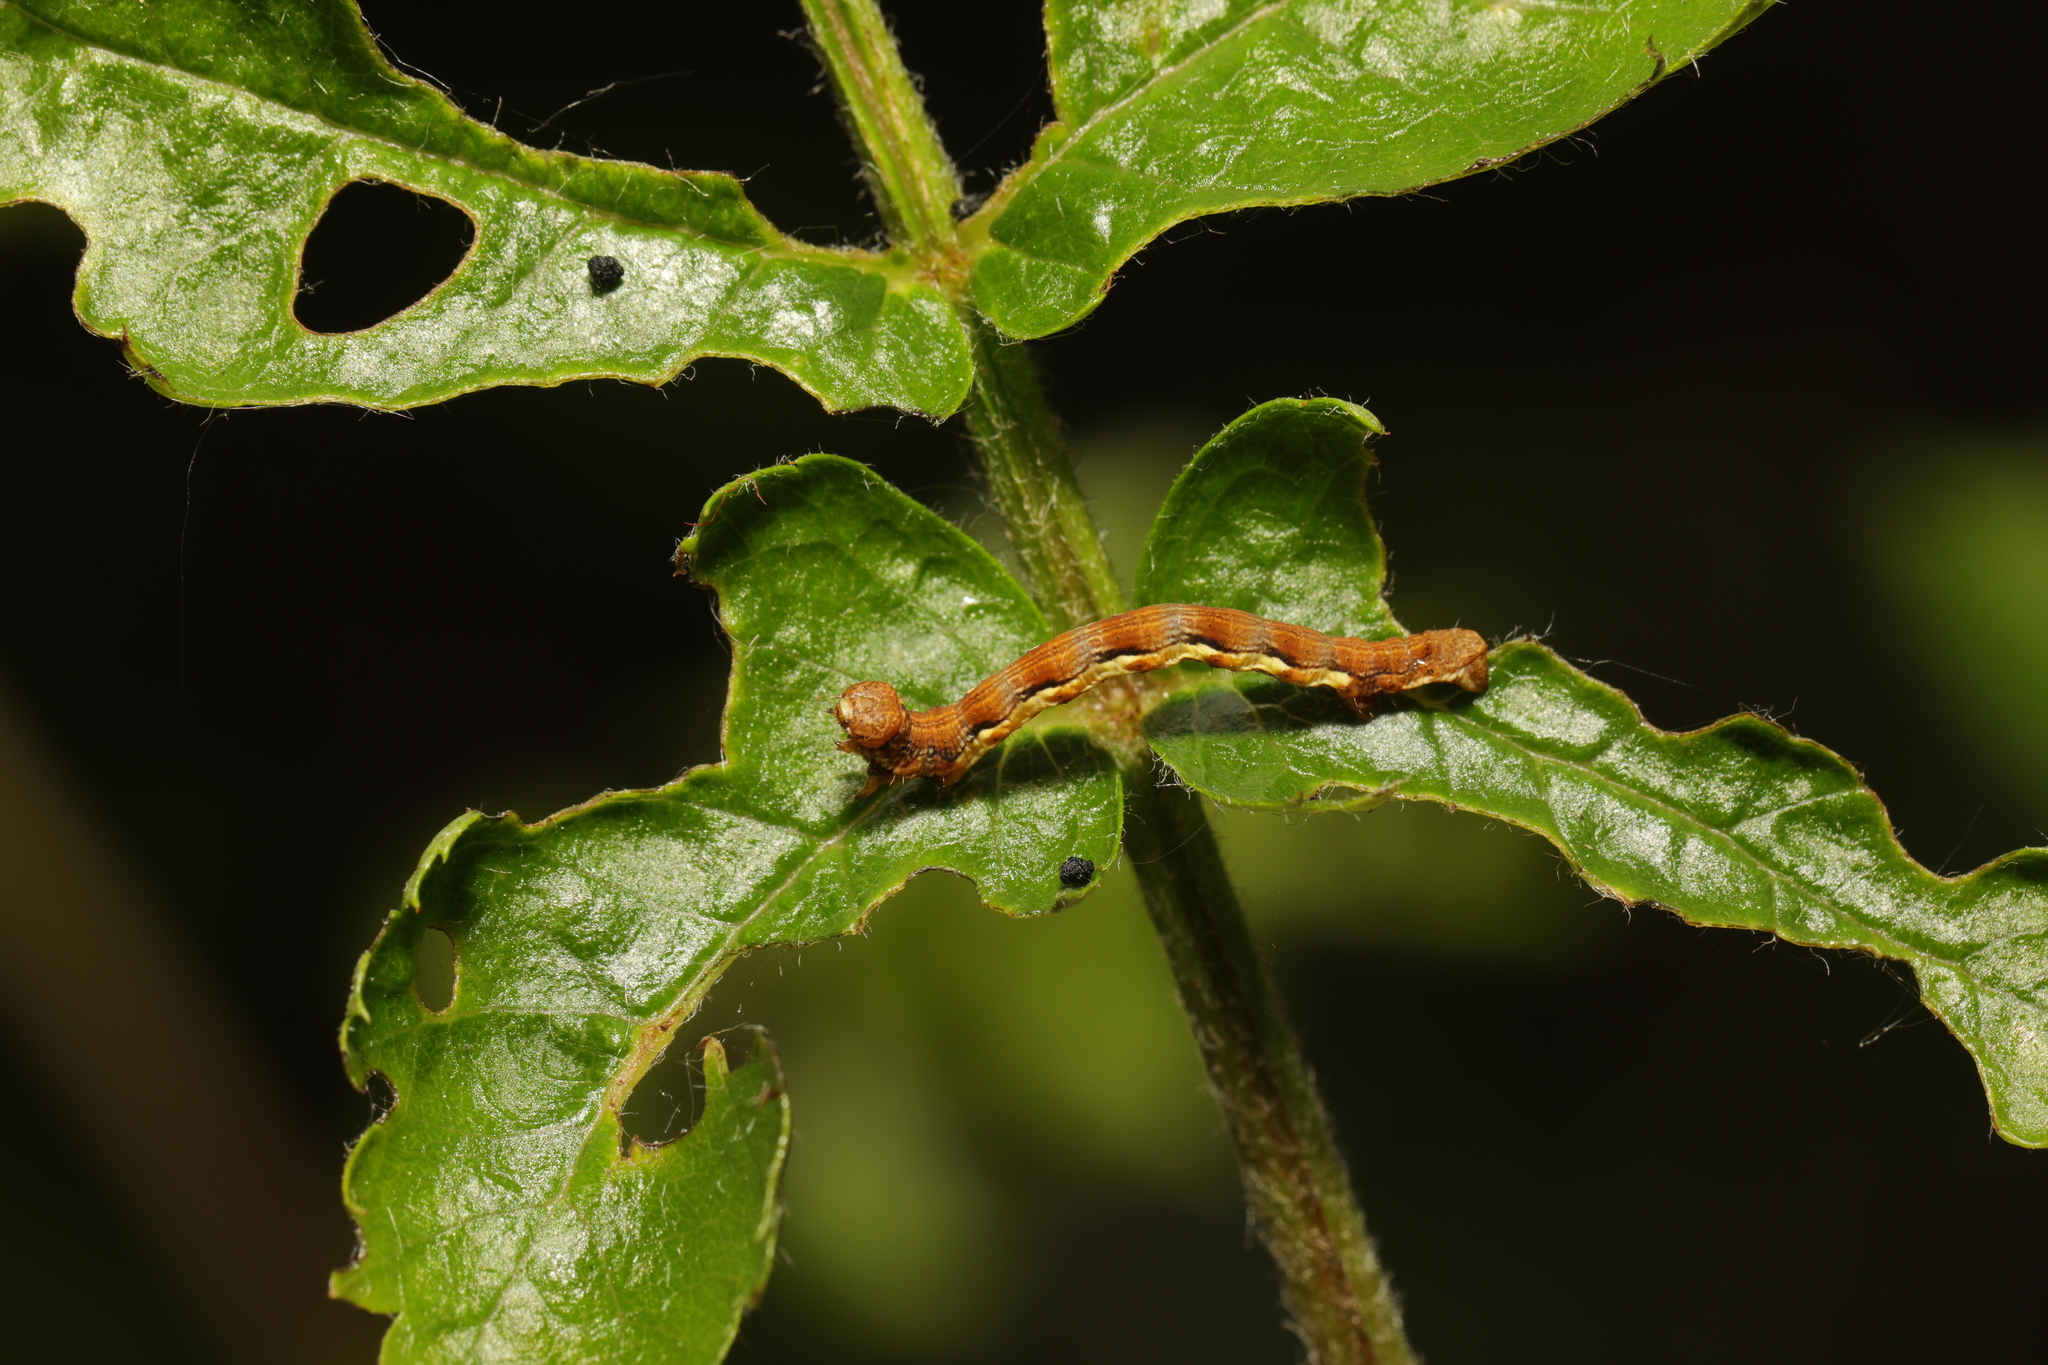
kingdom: Animalia
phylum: Arthropoda
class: Insecta
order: Lepidoptera
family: Geometridae
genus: Erannis
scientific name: Erannis defoliaria
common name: Mottled umber
